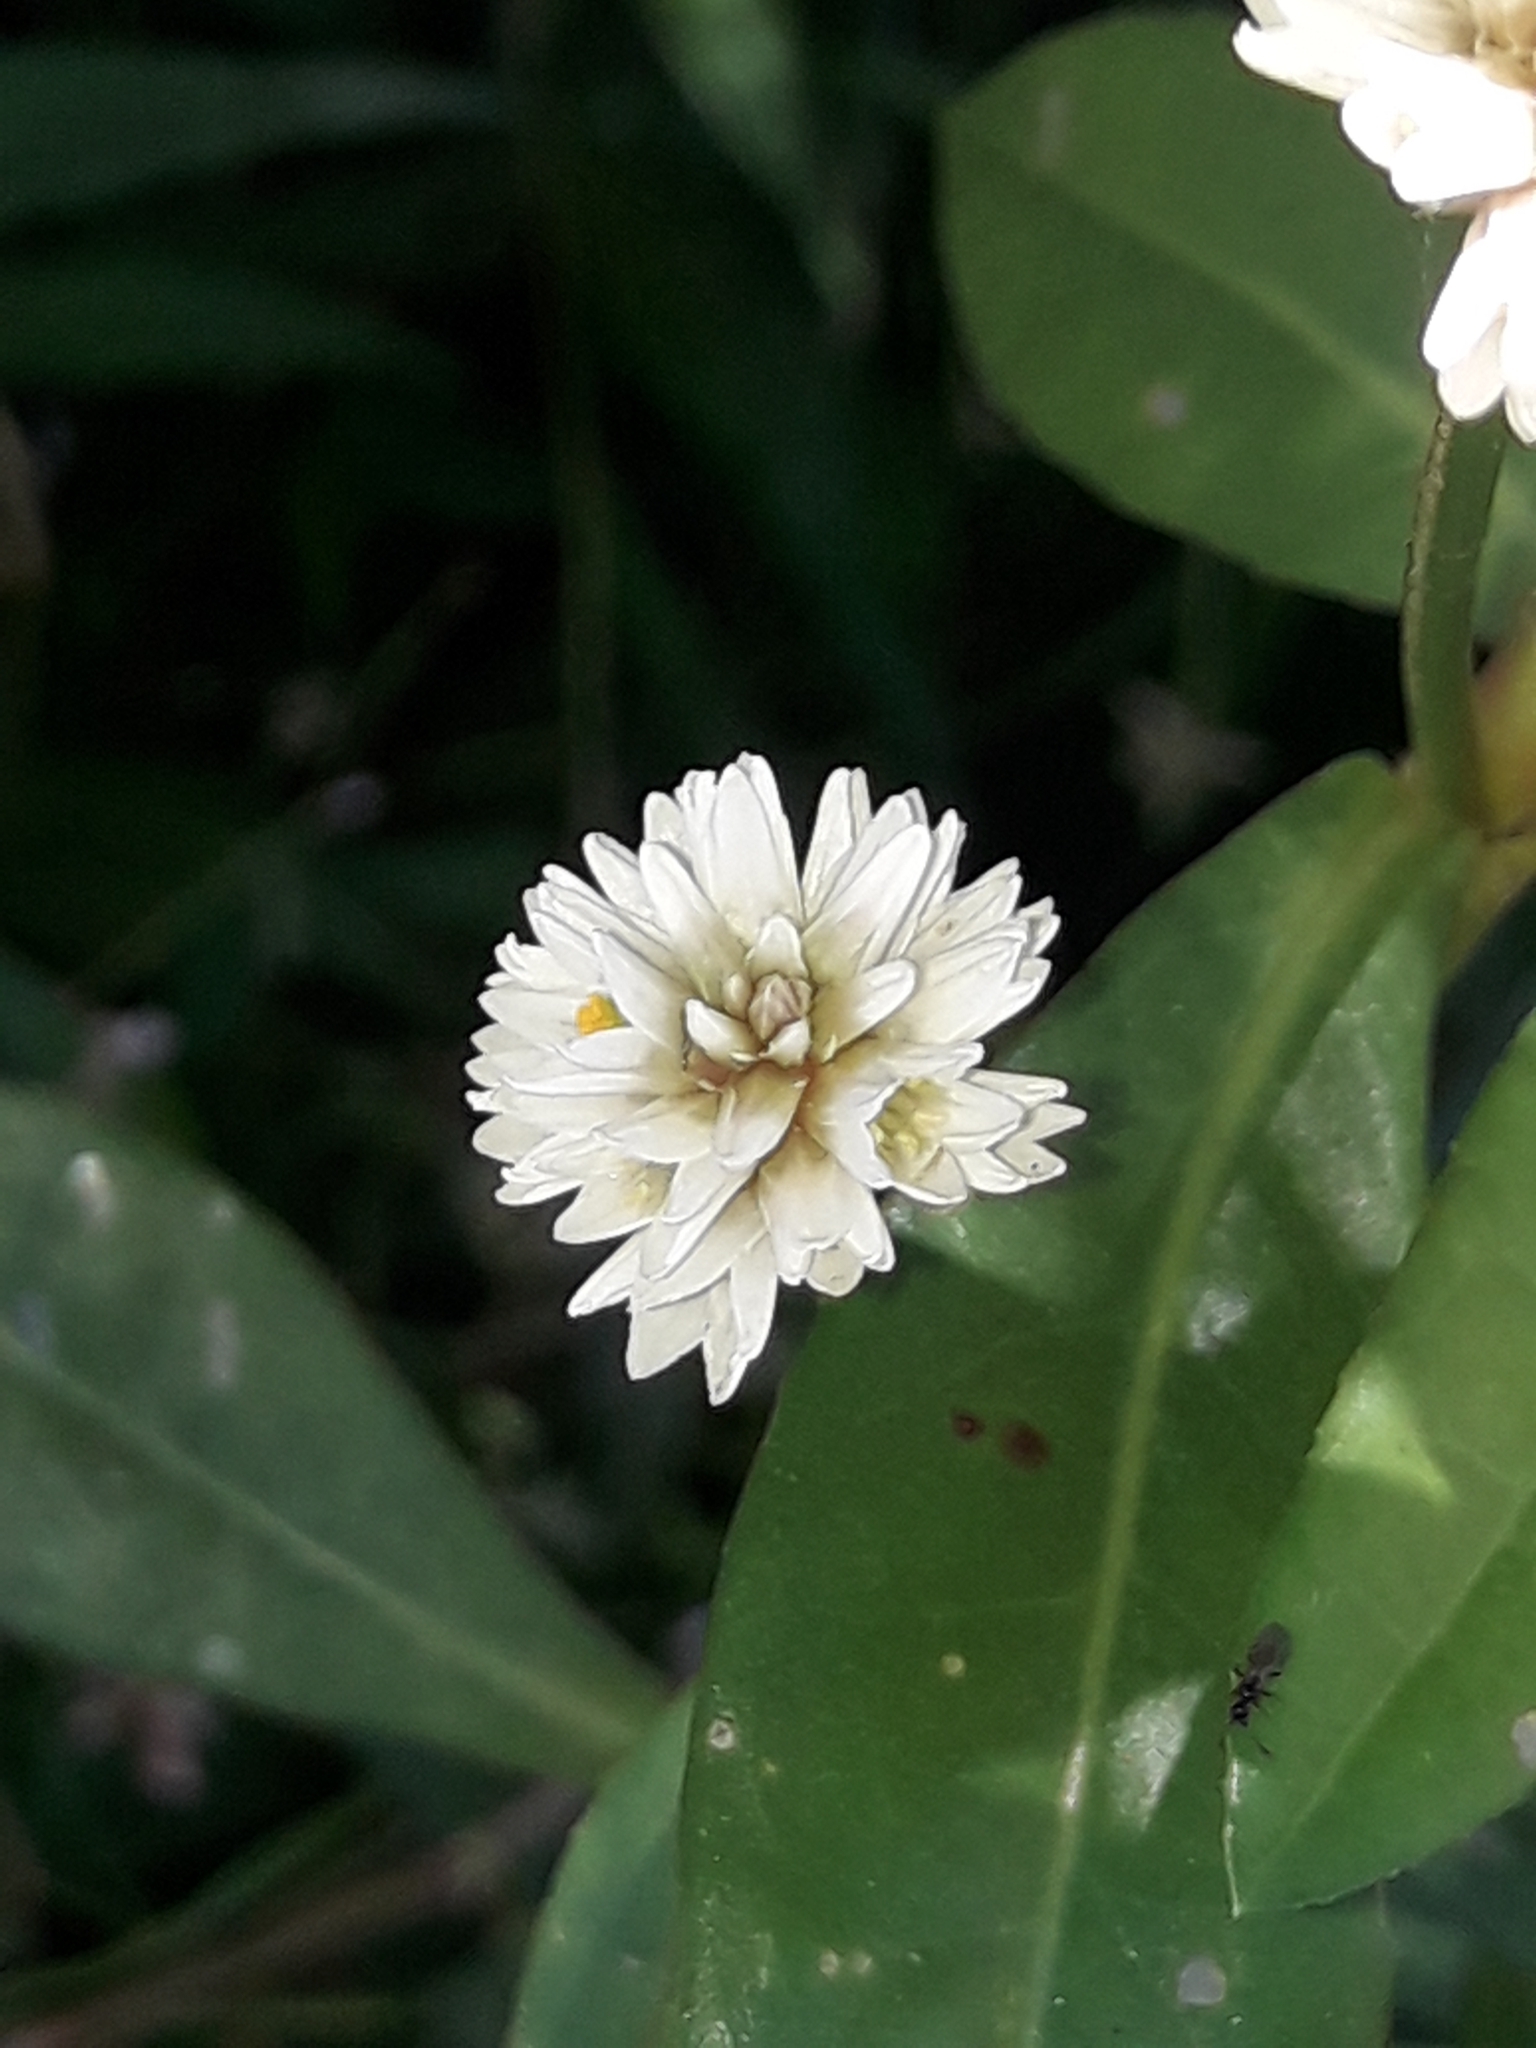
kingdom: Plantae
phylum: Tracheophyta
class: Magnoliopsida
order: Caryophyllales
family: Amaranthaceae
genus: Alternanthera
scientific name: Alternanthera philoxeroides
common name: Alligatorweed
